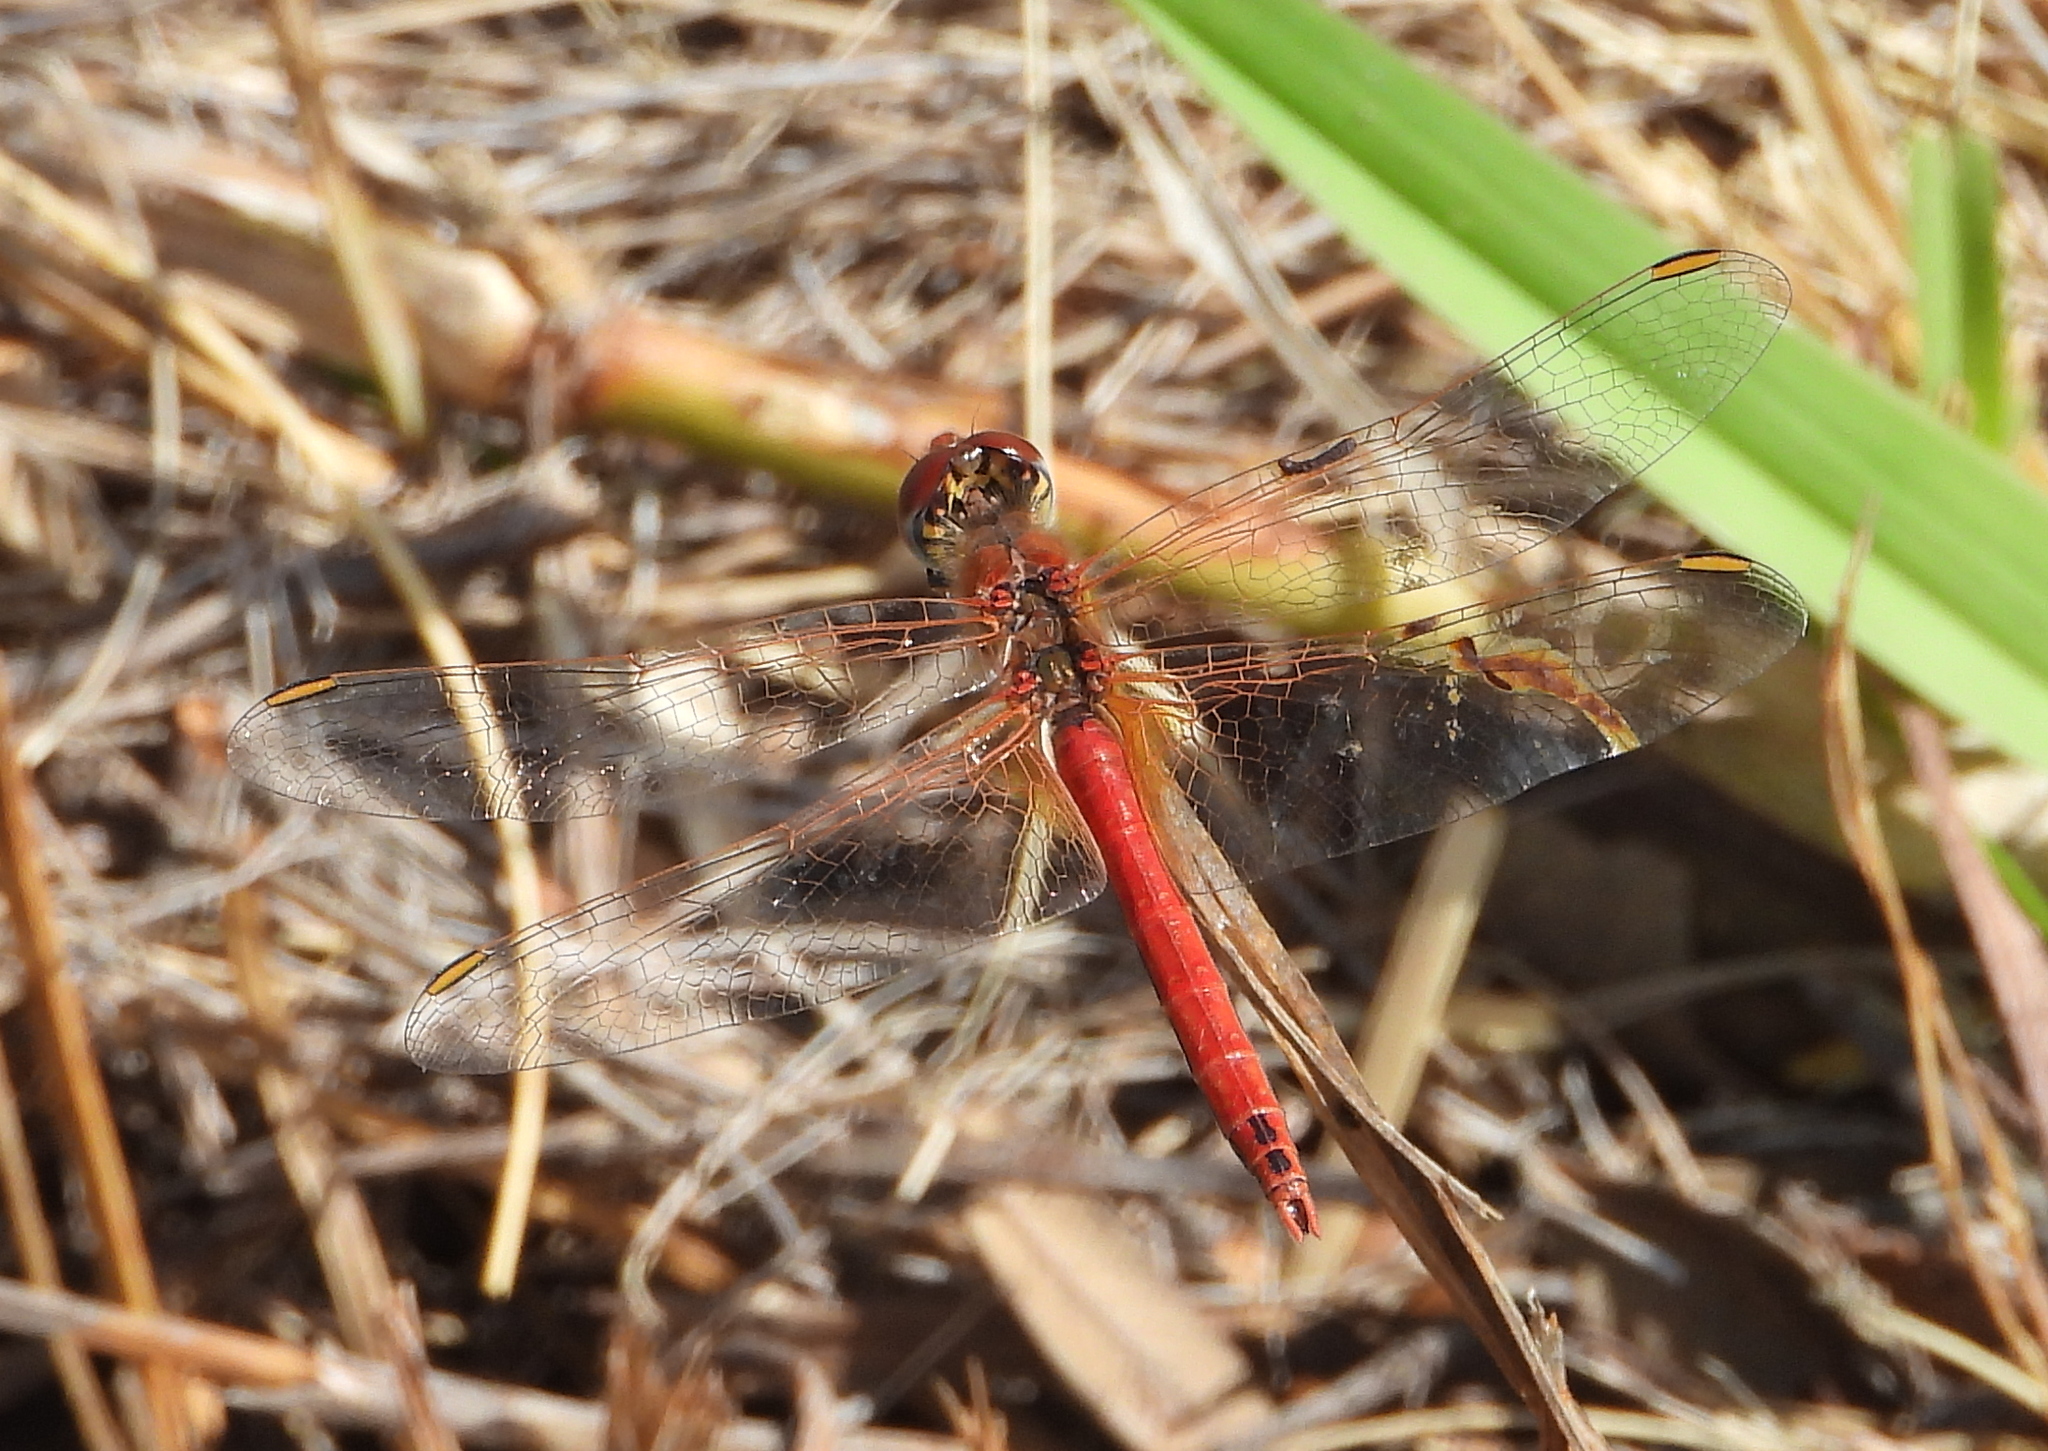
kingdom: Animalia
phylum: Arthropoda
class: Insecta
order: Odonata
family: Libellulidae
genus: Sympetrum
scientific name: Sympetrum fonscolombii
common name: Red-veined darter
